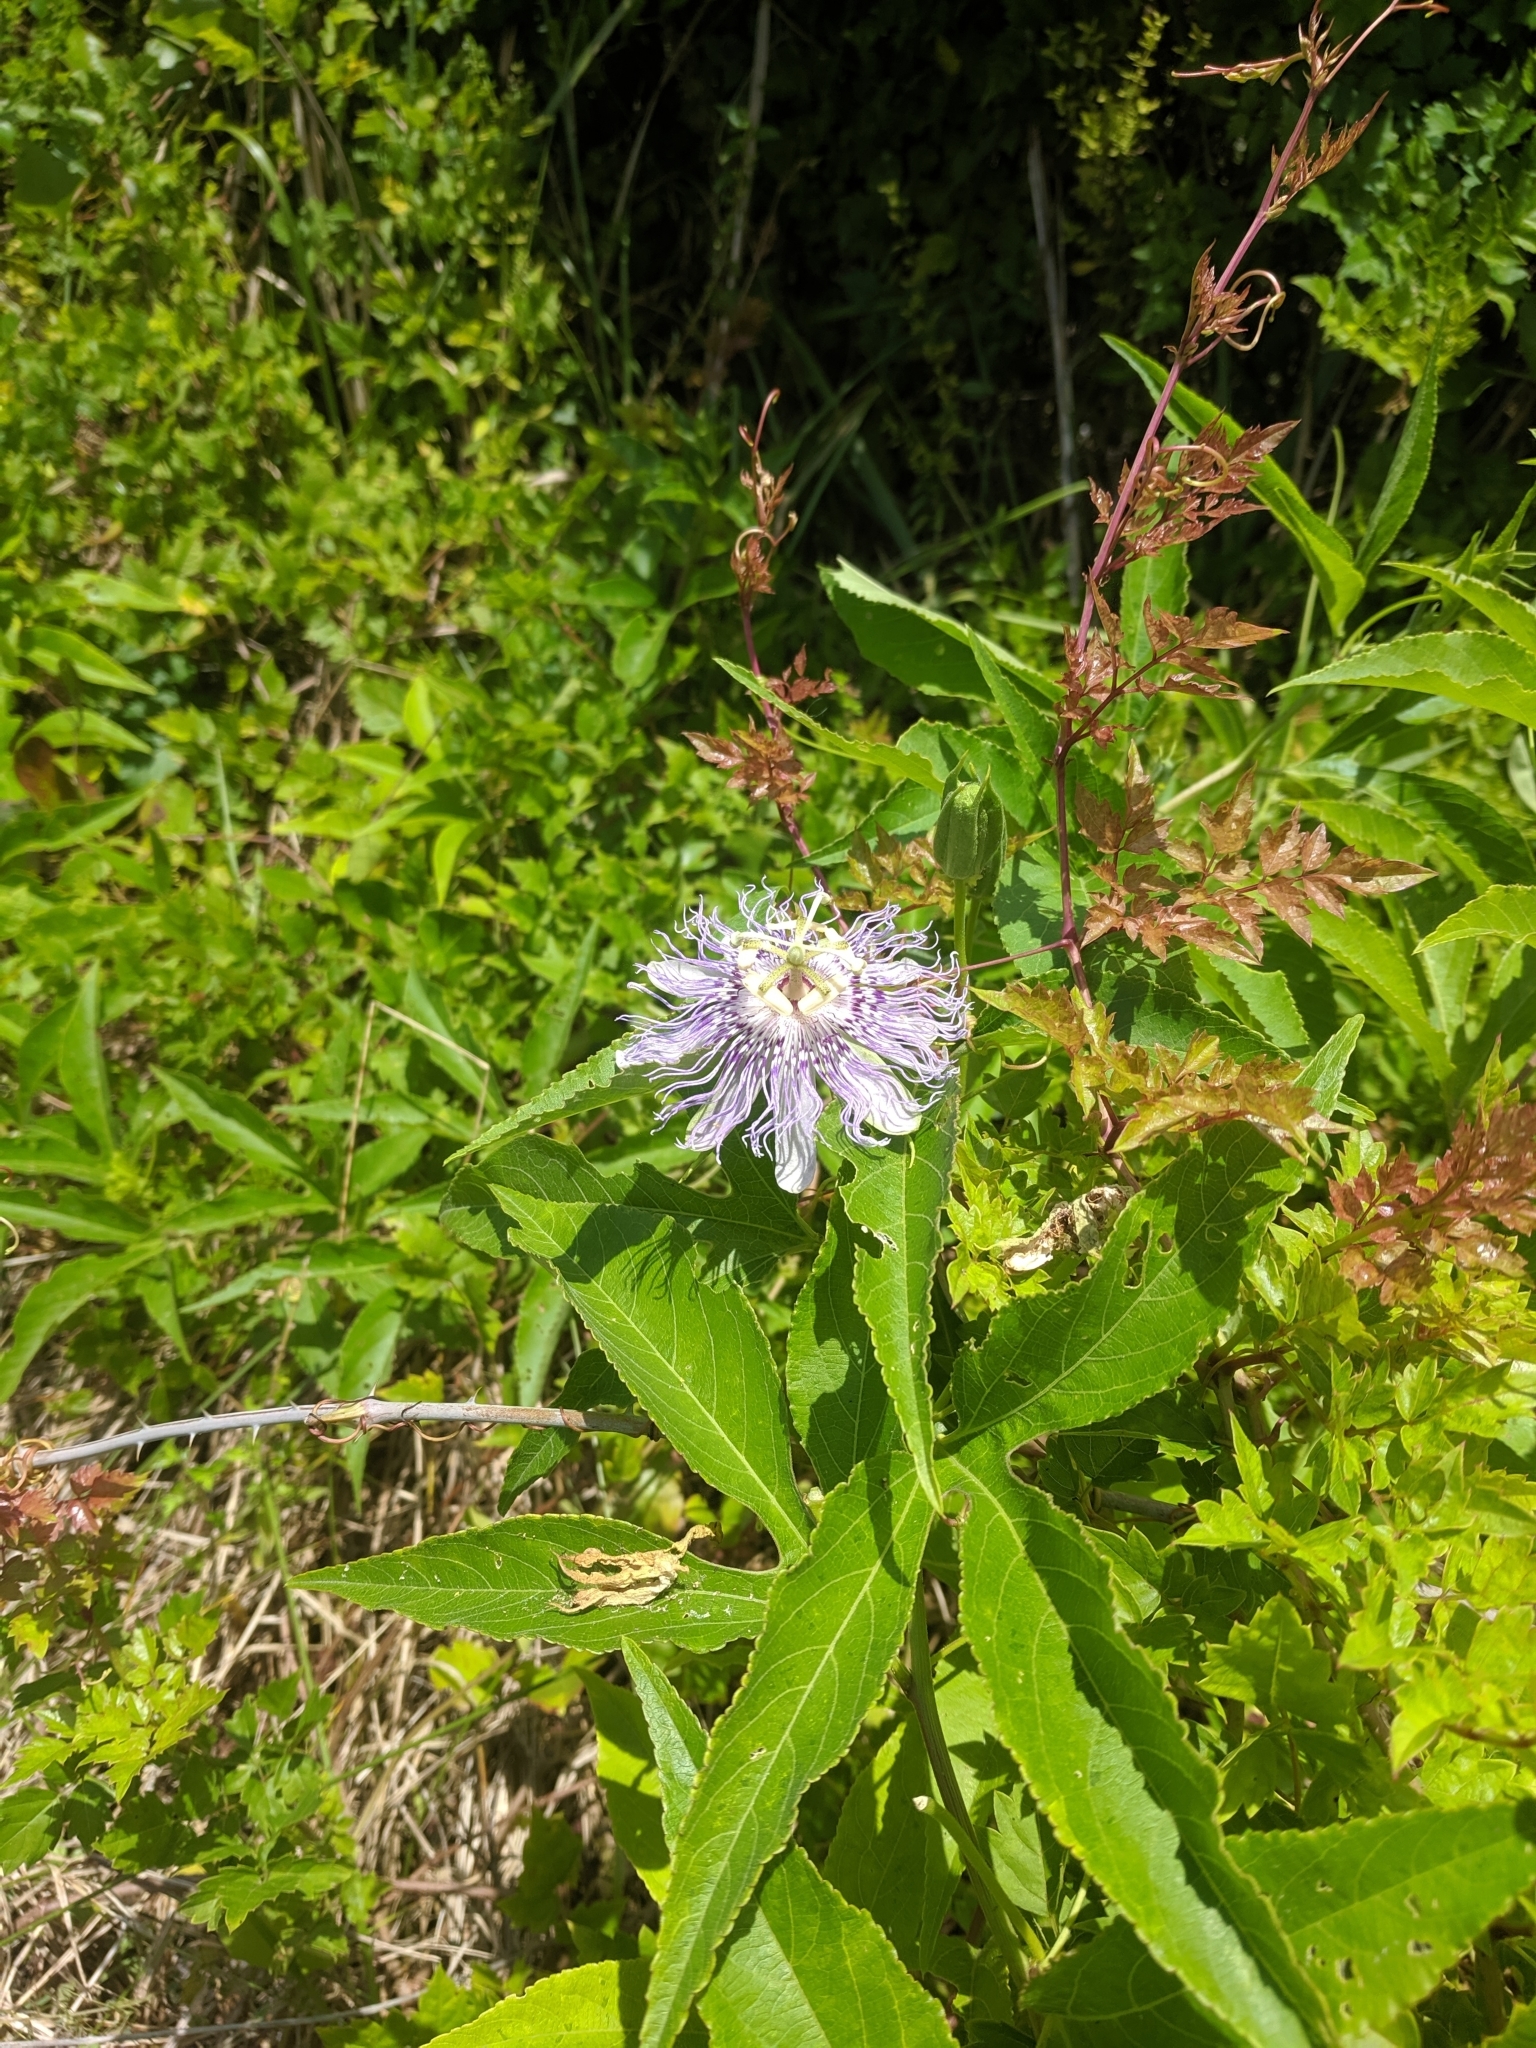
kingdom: Plantae
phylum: Tracheophyta
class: Magnoliopsida
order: Malpighiales
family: Passifloraceae
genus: Passiflora
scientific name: Passiflora incarnata
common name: Apricot-vine
